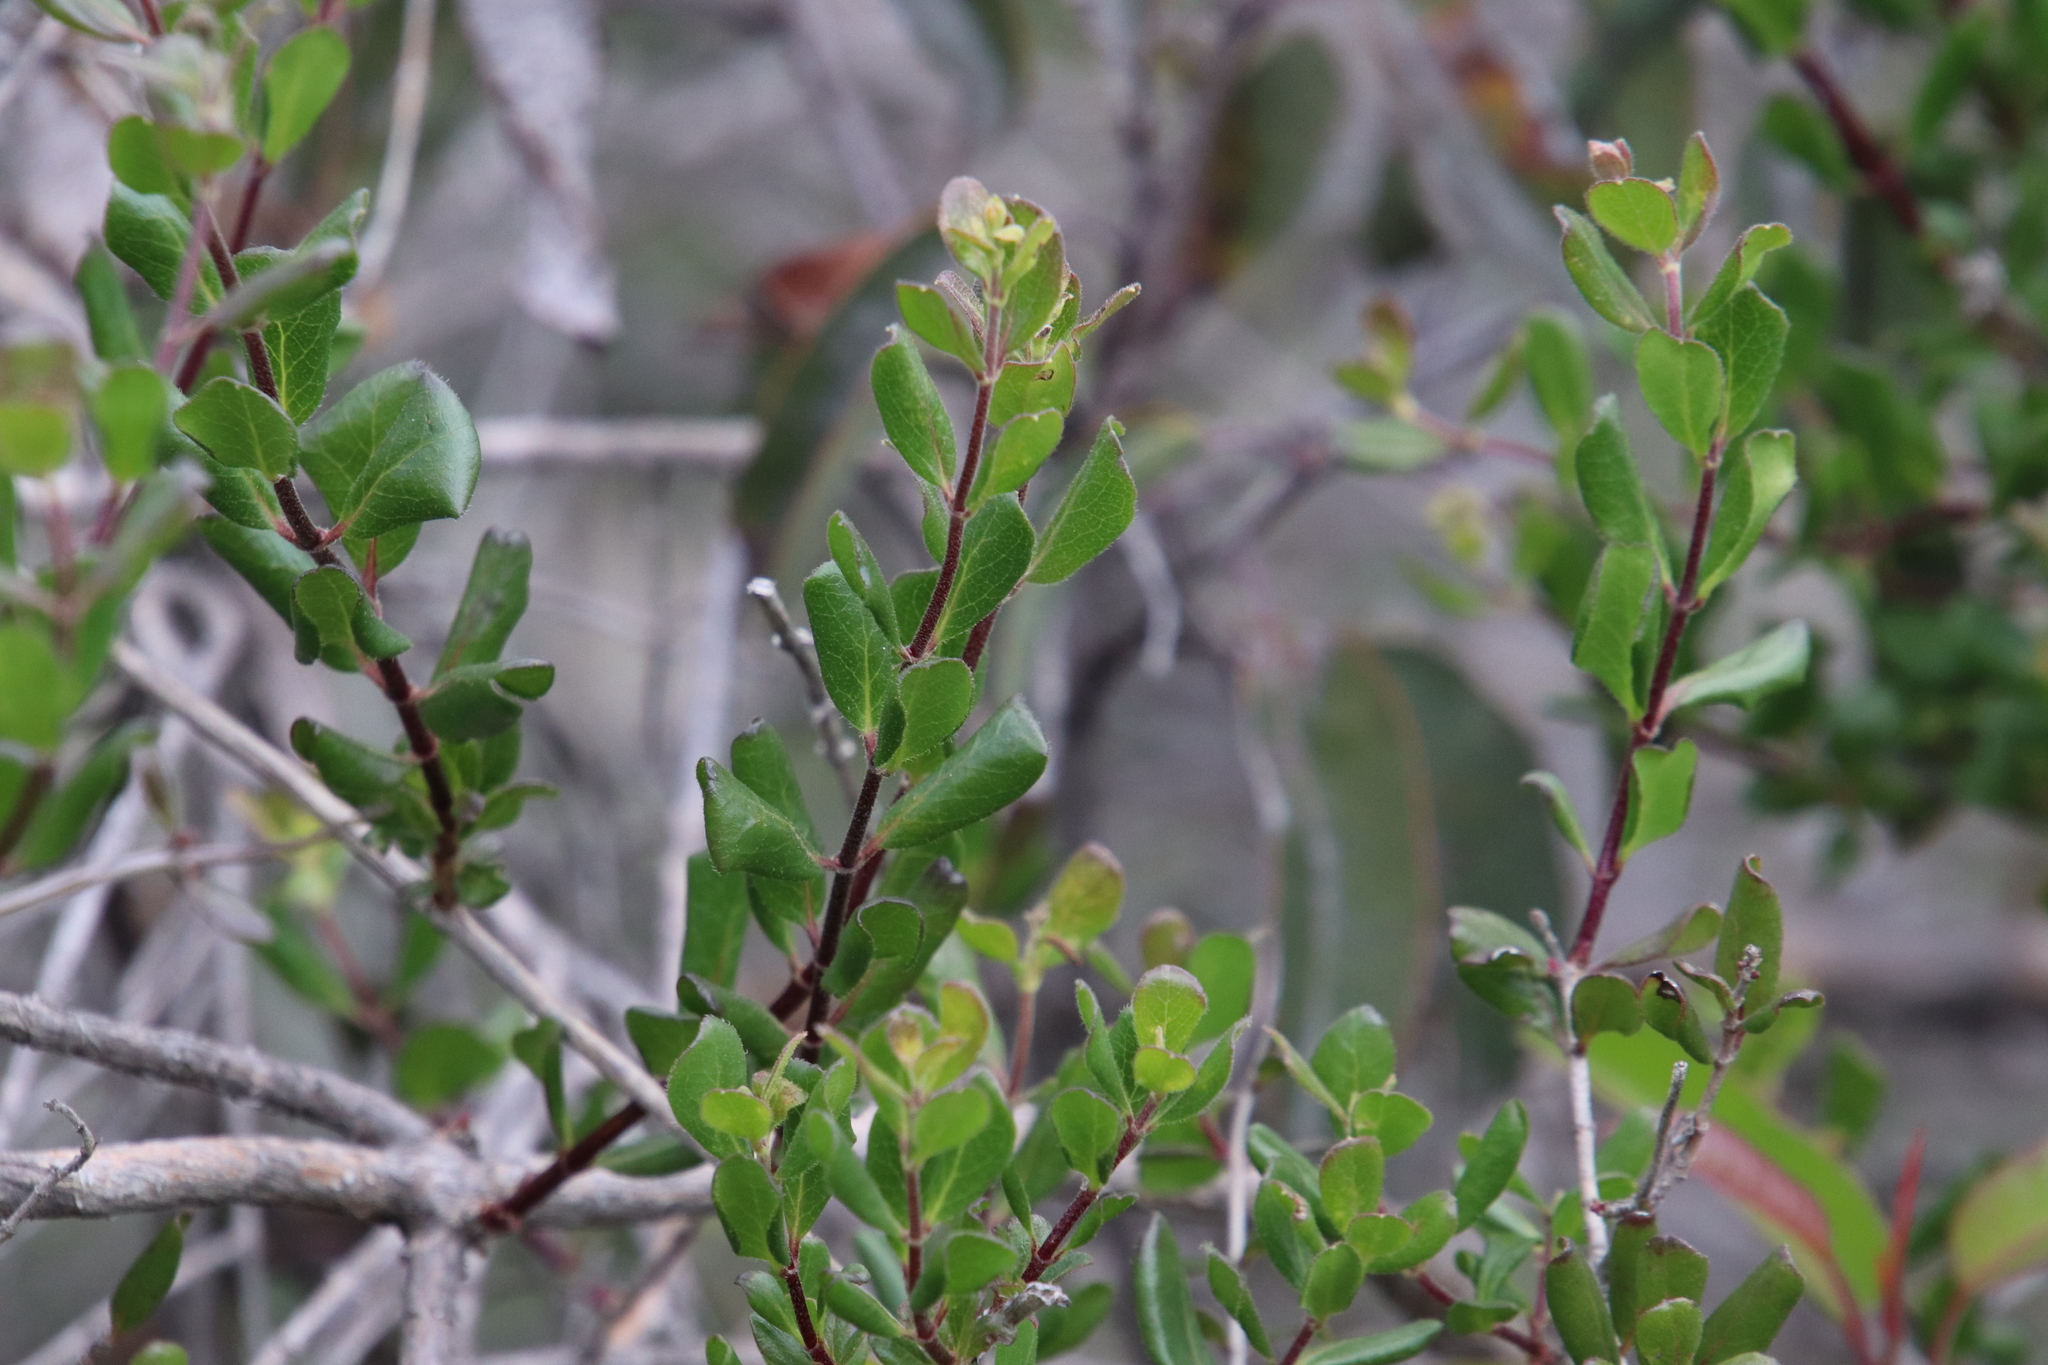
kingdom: Plantae
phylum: Tracheophyta
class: Magnoliopsida
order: Dipsacales
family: Caprifoliaceae
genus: Lonicera
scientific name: Lonicera subspicata
